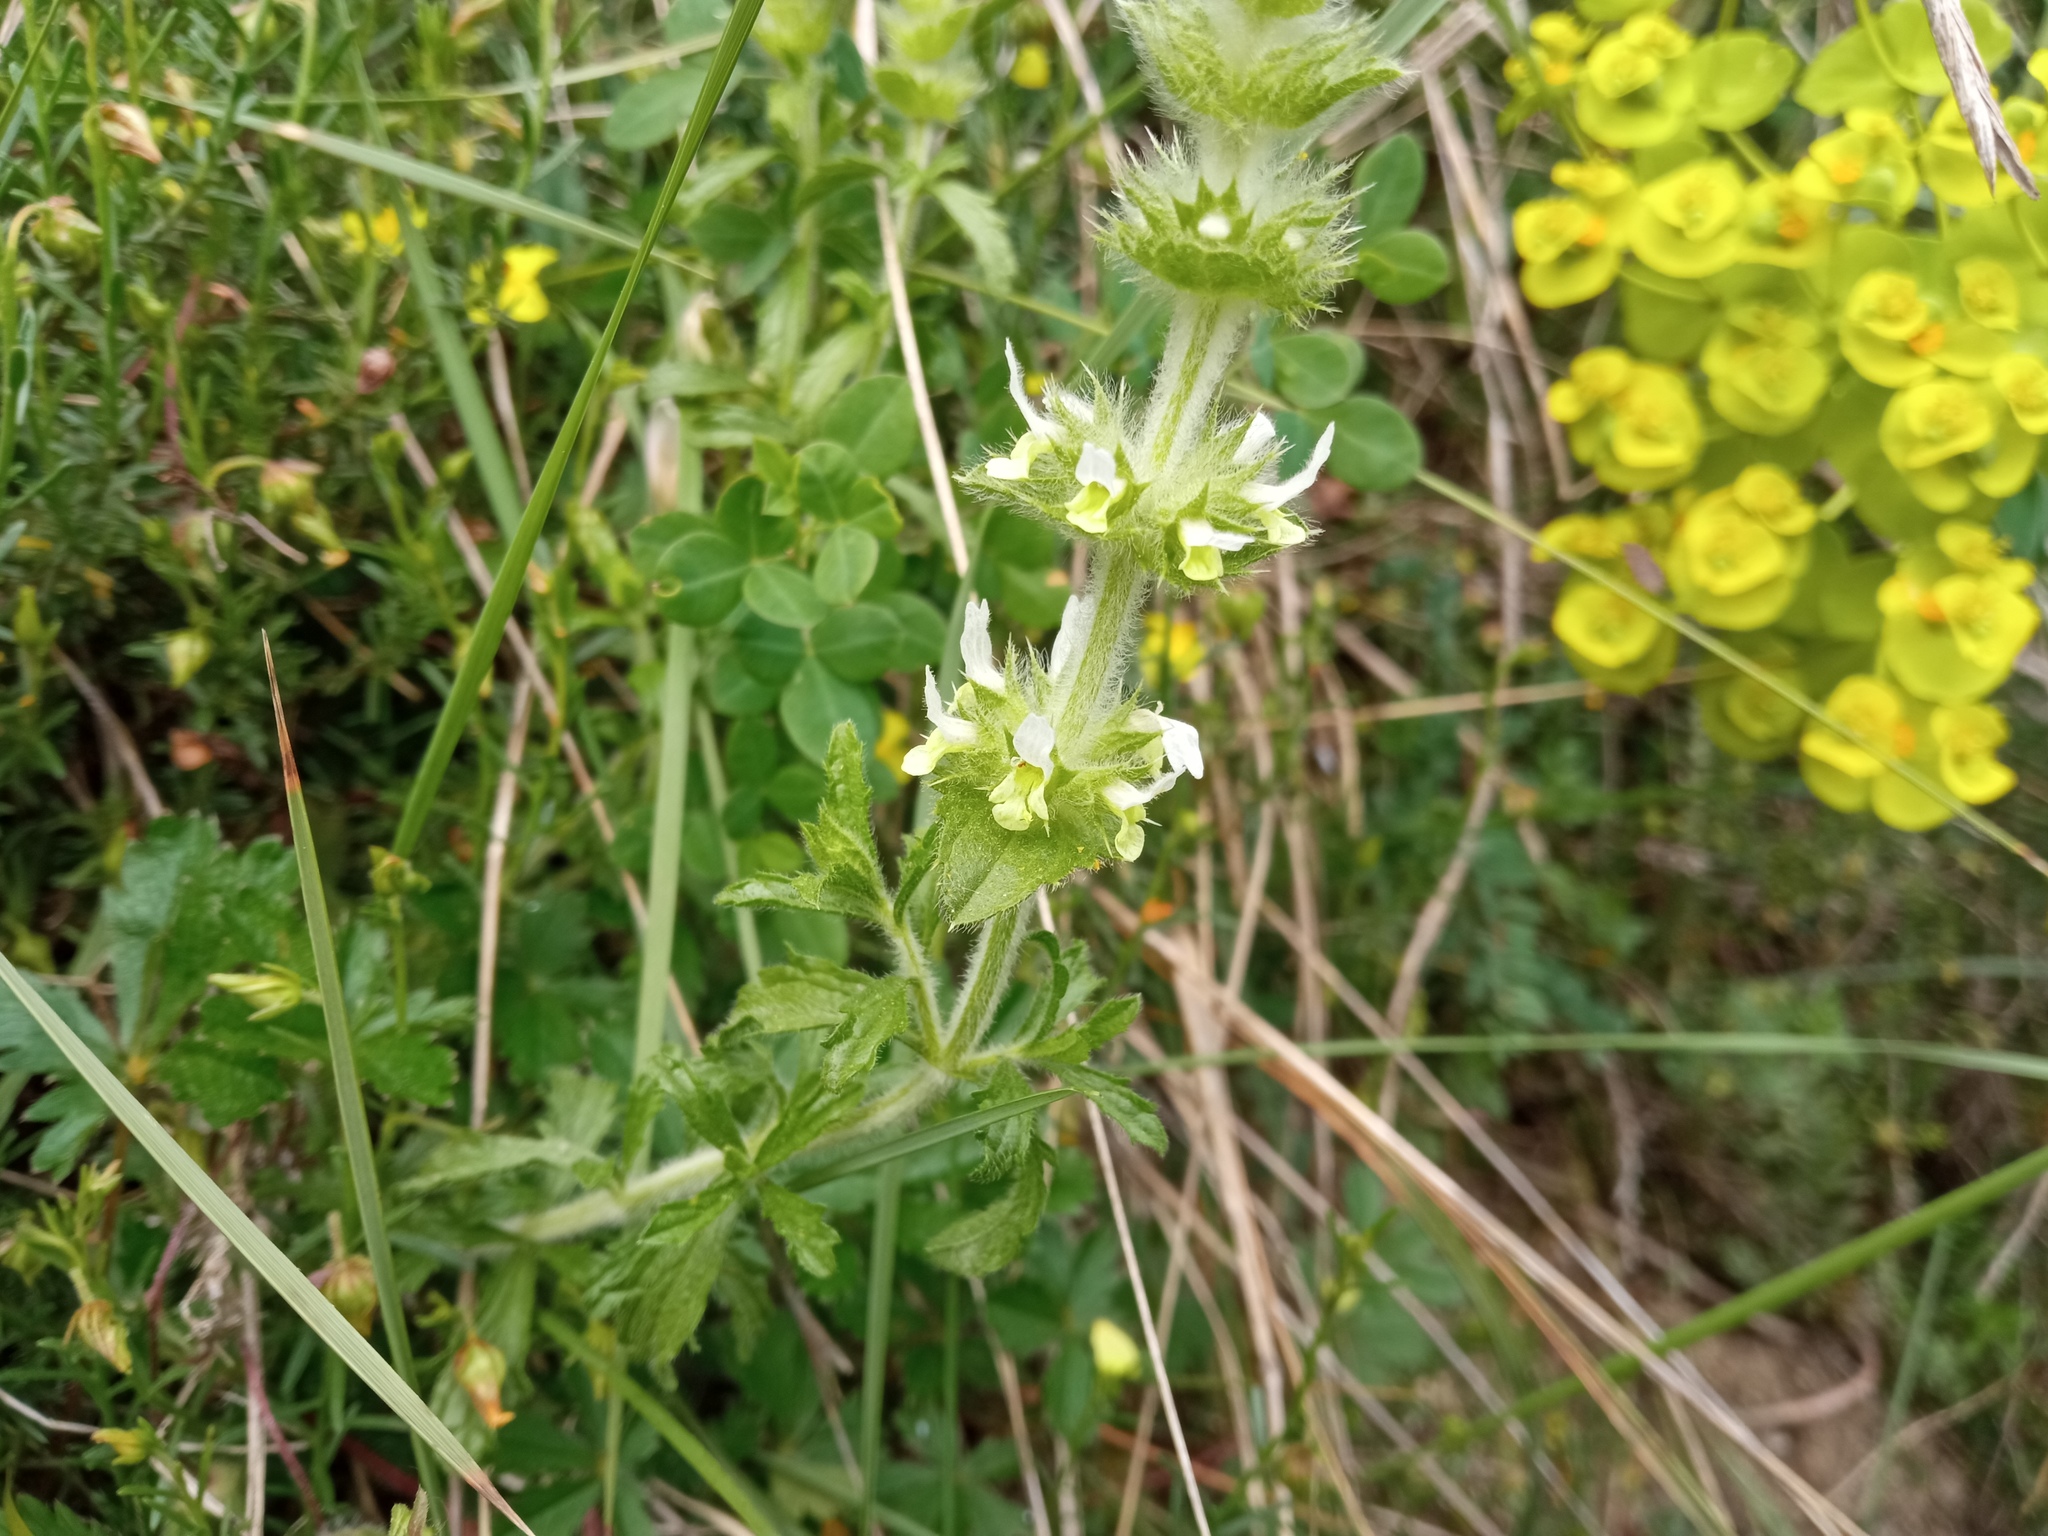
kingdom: Plantae
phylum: Tracheophyta
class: Magnoliopsida
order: Lamiales
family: Lamiaceae
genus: Sideritis
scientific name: Sideritis hirsuta
